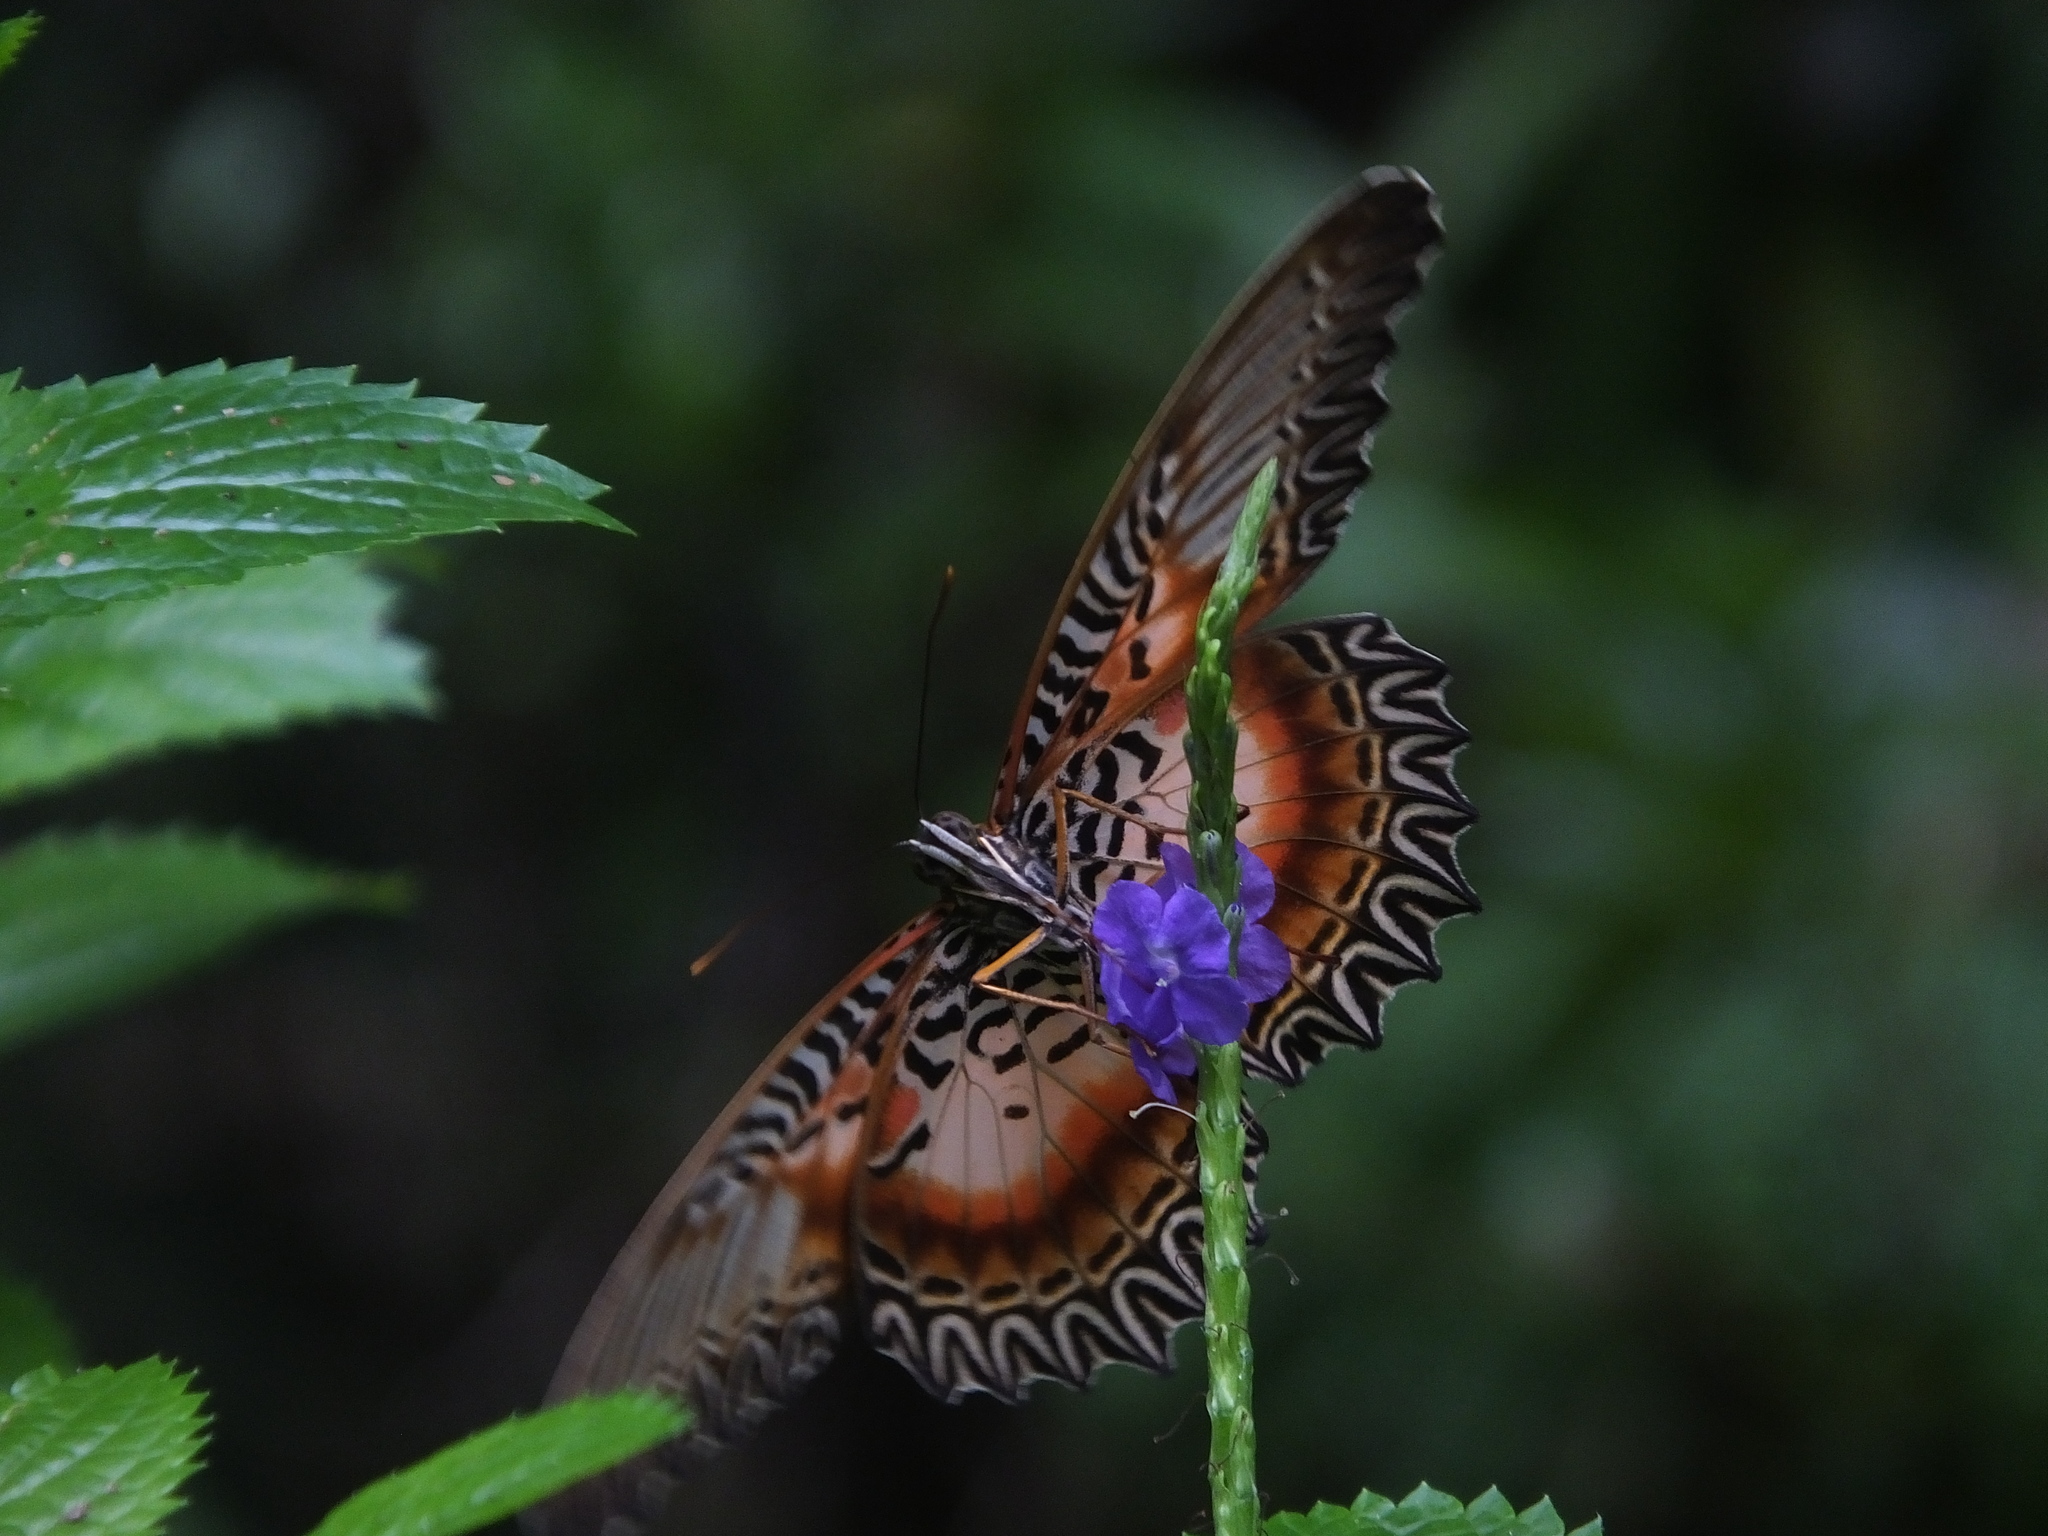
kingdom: Animalia
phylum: Arthropoda
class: Insecta
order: Lepidoptera
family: Nymphalidae
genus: Cethosia
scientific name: Cethosia myrina
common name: Violet lacewing
